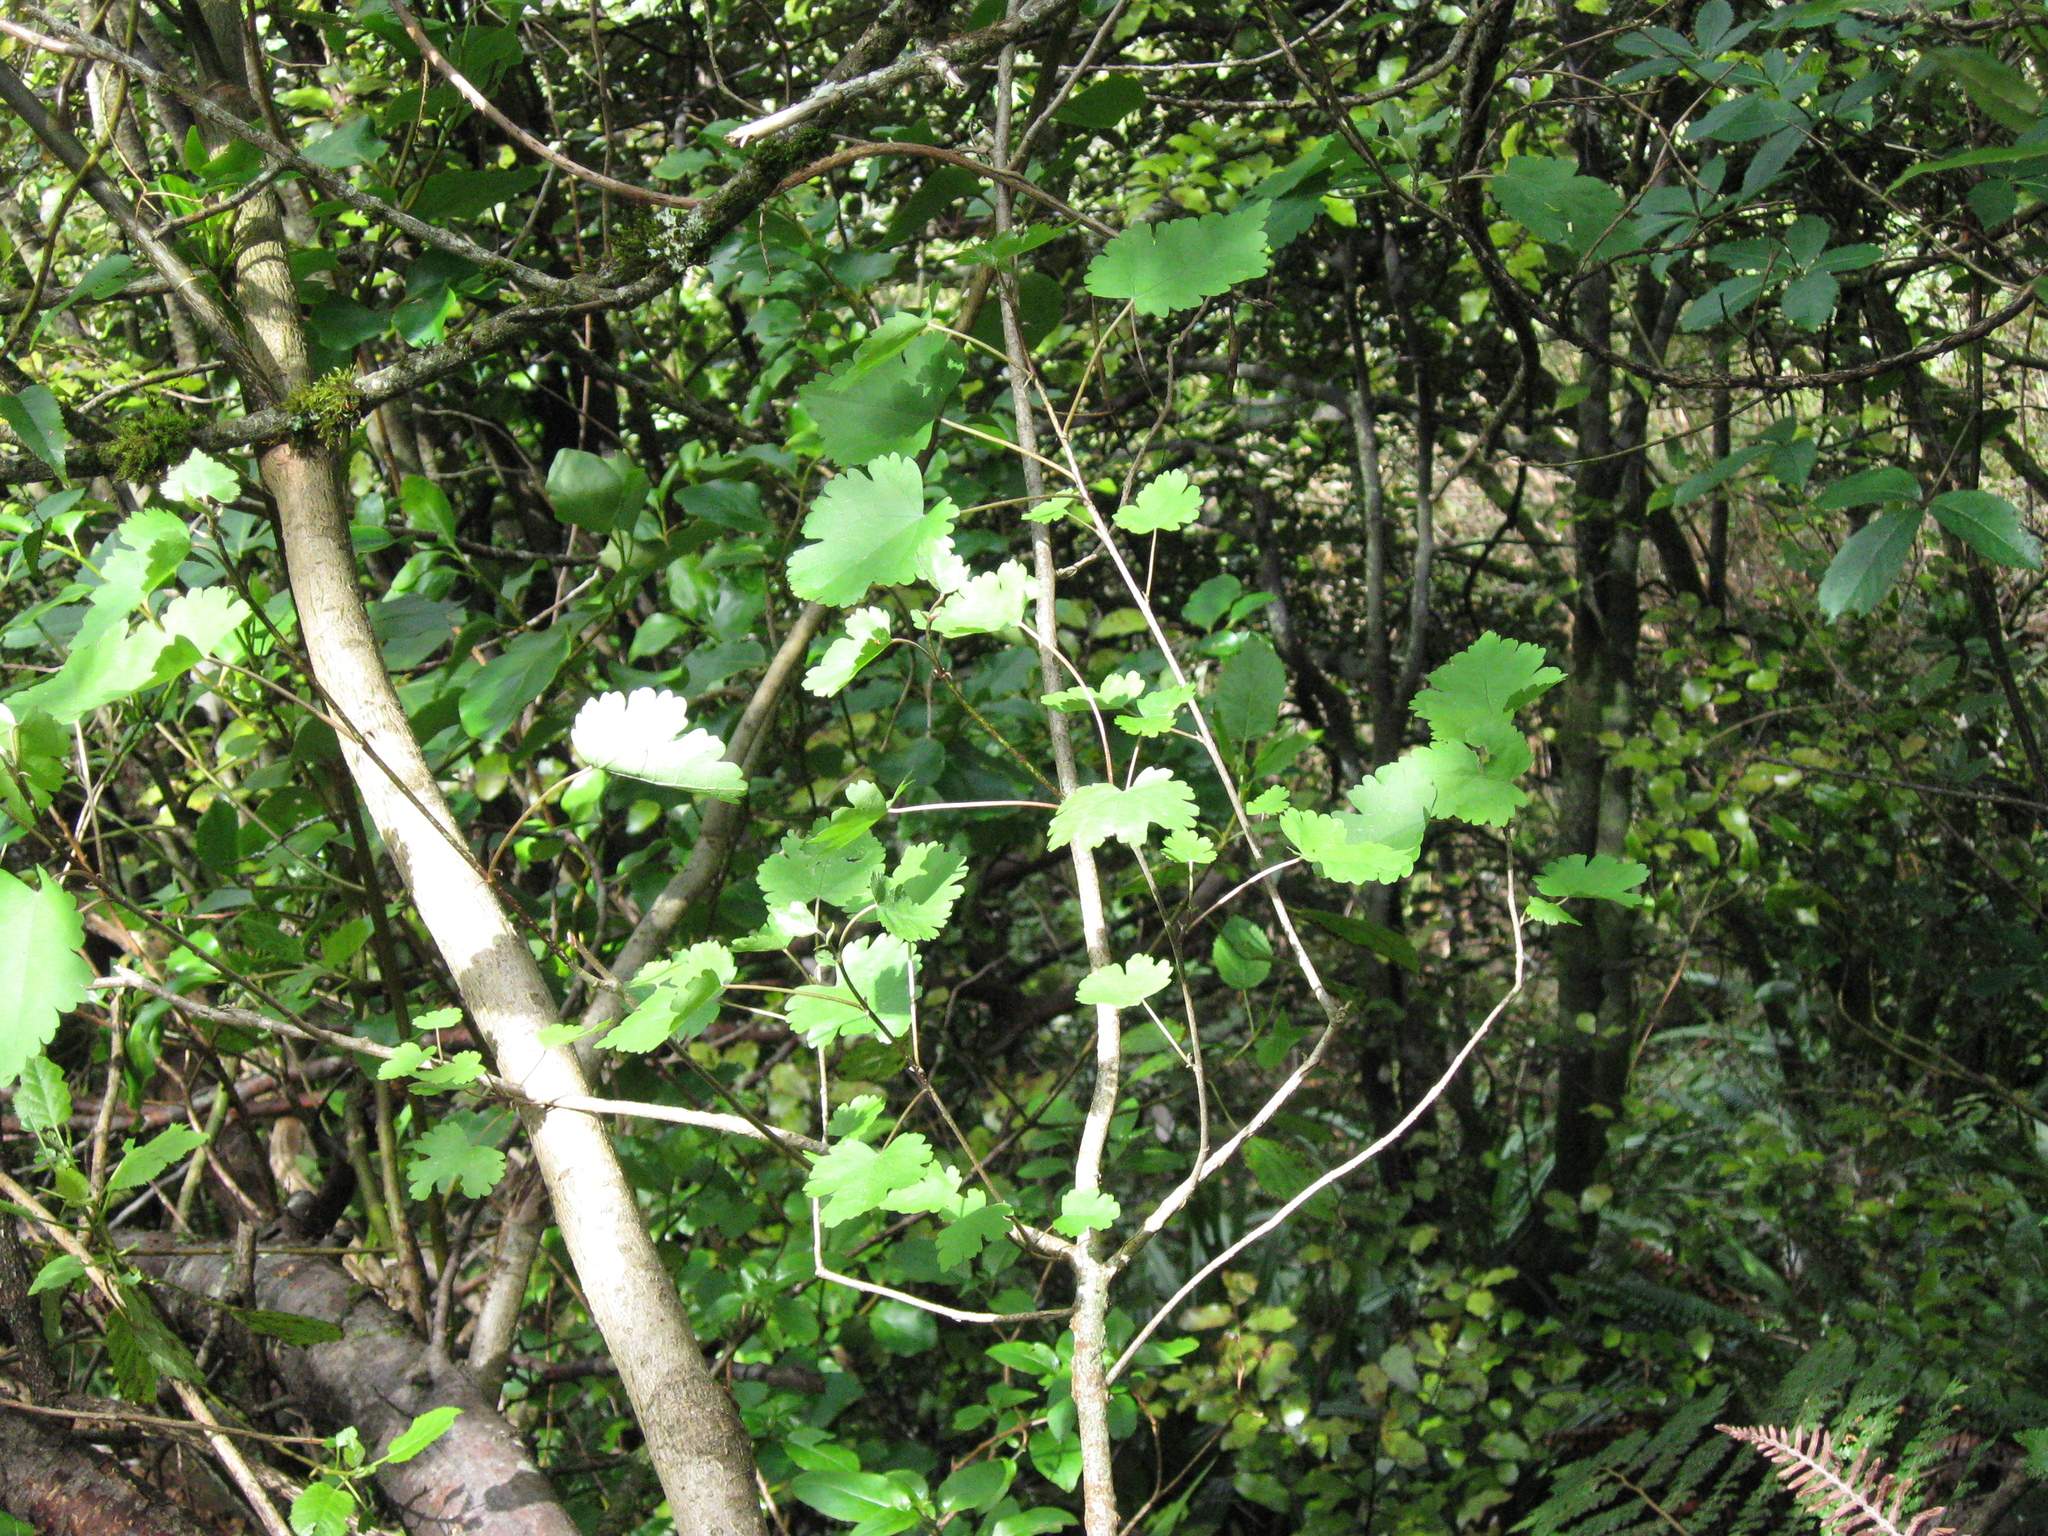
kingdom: Plantae
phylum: Tracheophyta
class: Magnoliopsida
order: Malvales
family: Malvaceae
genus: Hoheria
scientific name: Hoheria lyallii
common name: Lacebark
